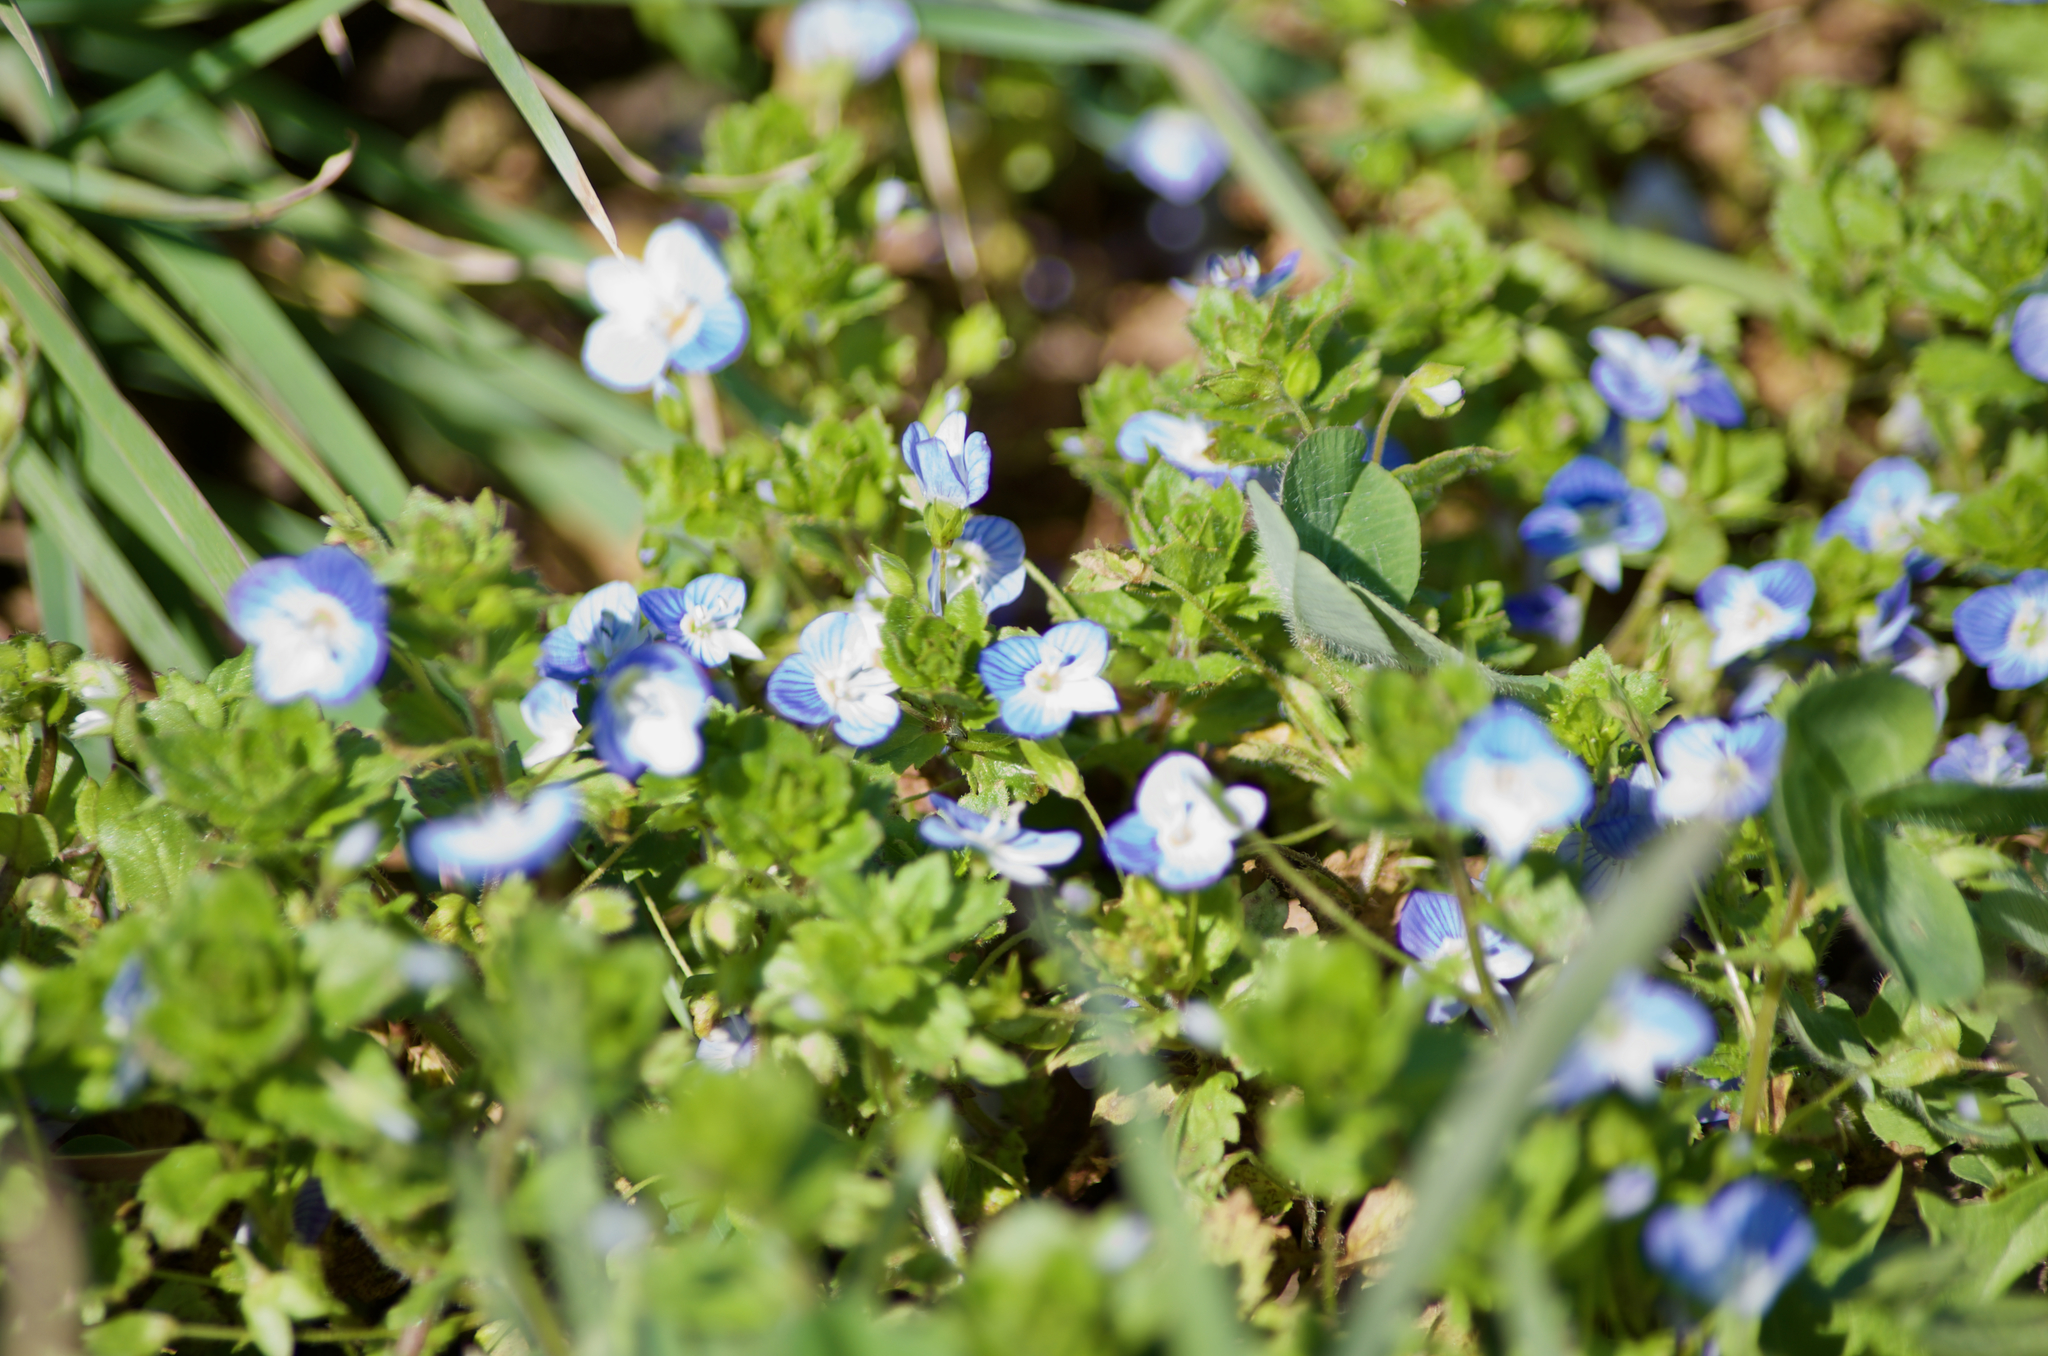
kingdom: Plantae
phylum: Tracheophyta
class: Magnoliopsida
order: Lamiales
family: Plantaginaceae
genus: Veronica
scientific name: Veronica persica
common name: Common field-speedwell
